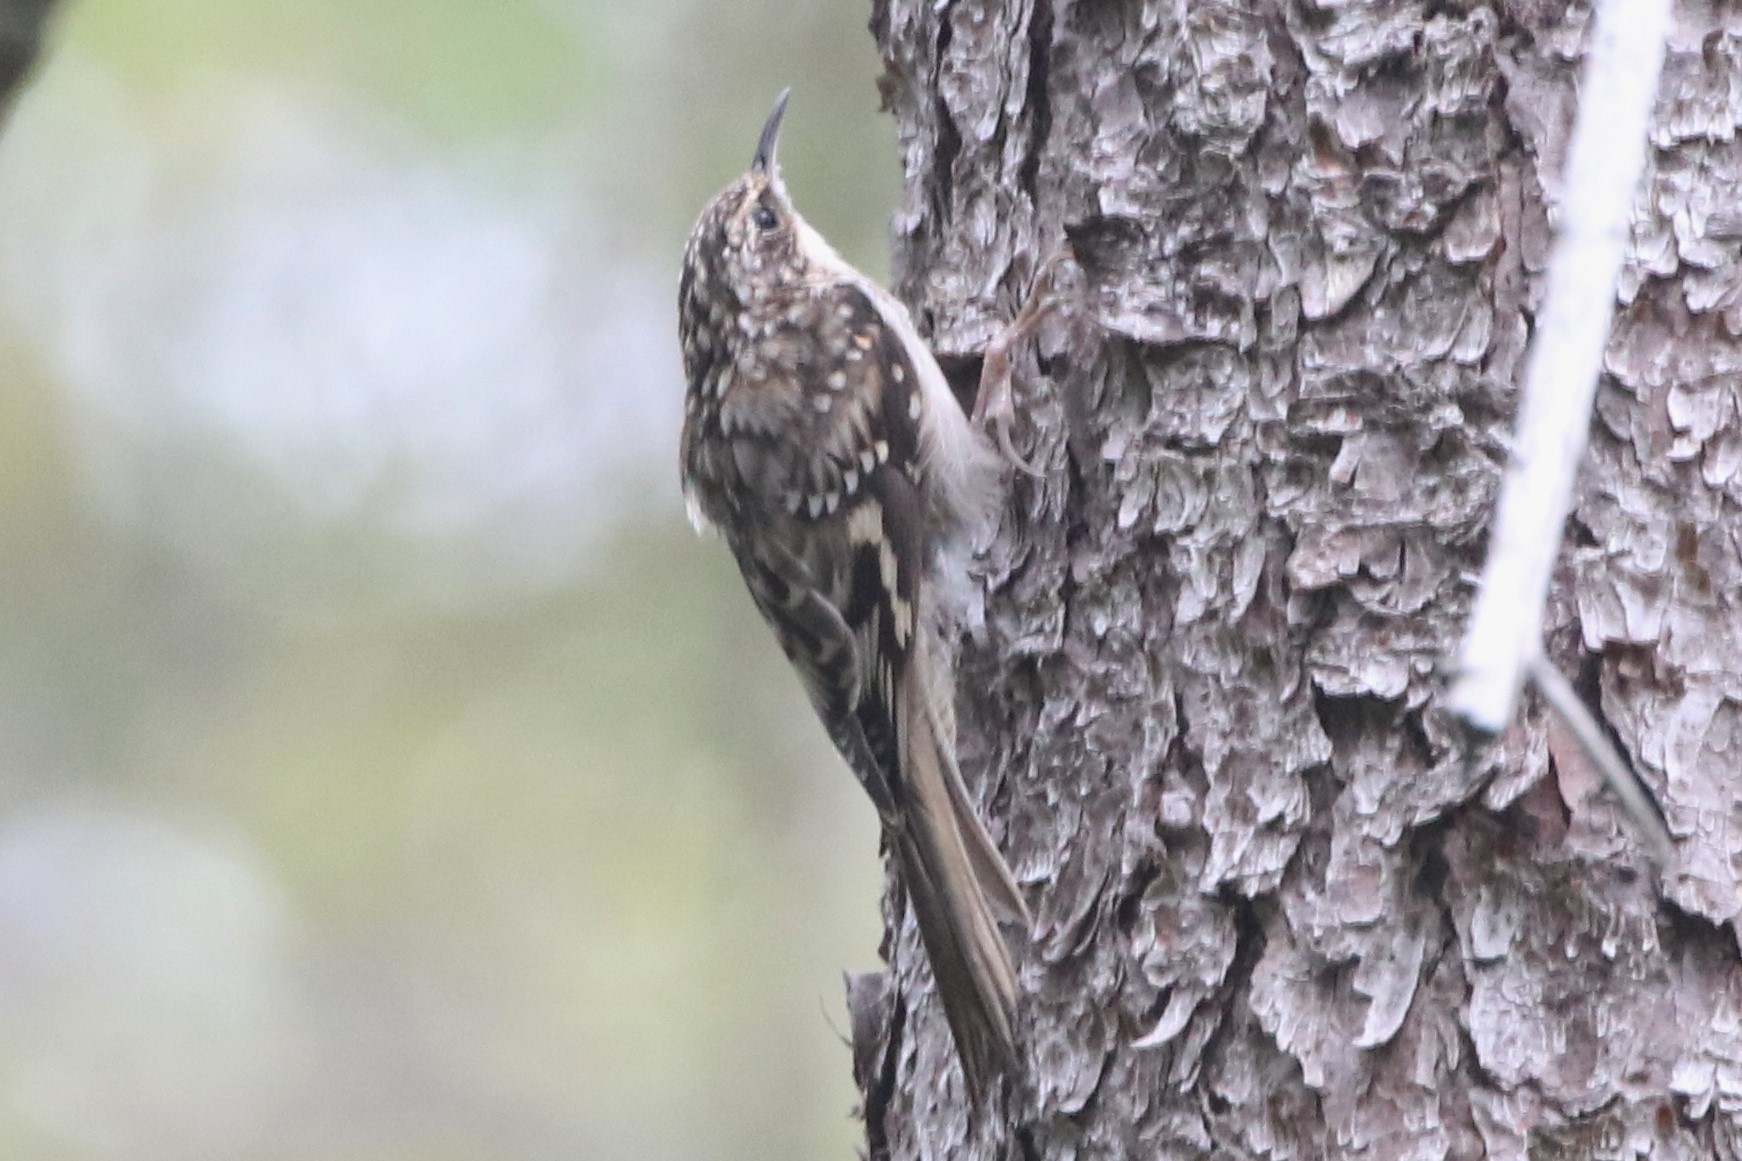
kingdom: Animalia
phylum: Chordata
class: Aves
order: Passeriformes
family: Certhiidae
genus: Certhia
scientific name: Certhia americana
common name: Brown creeper
